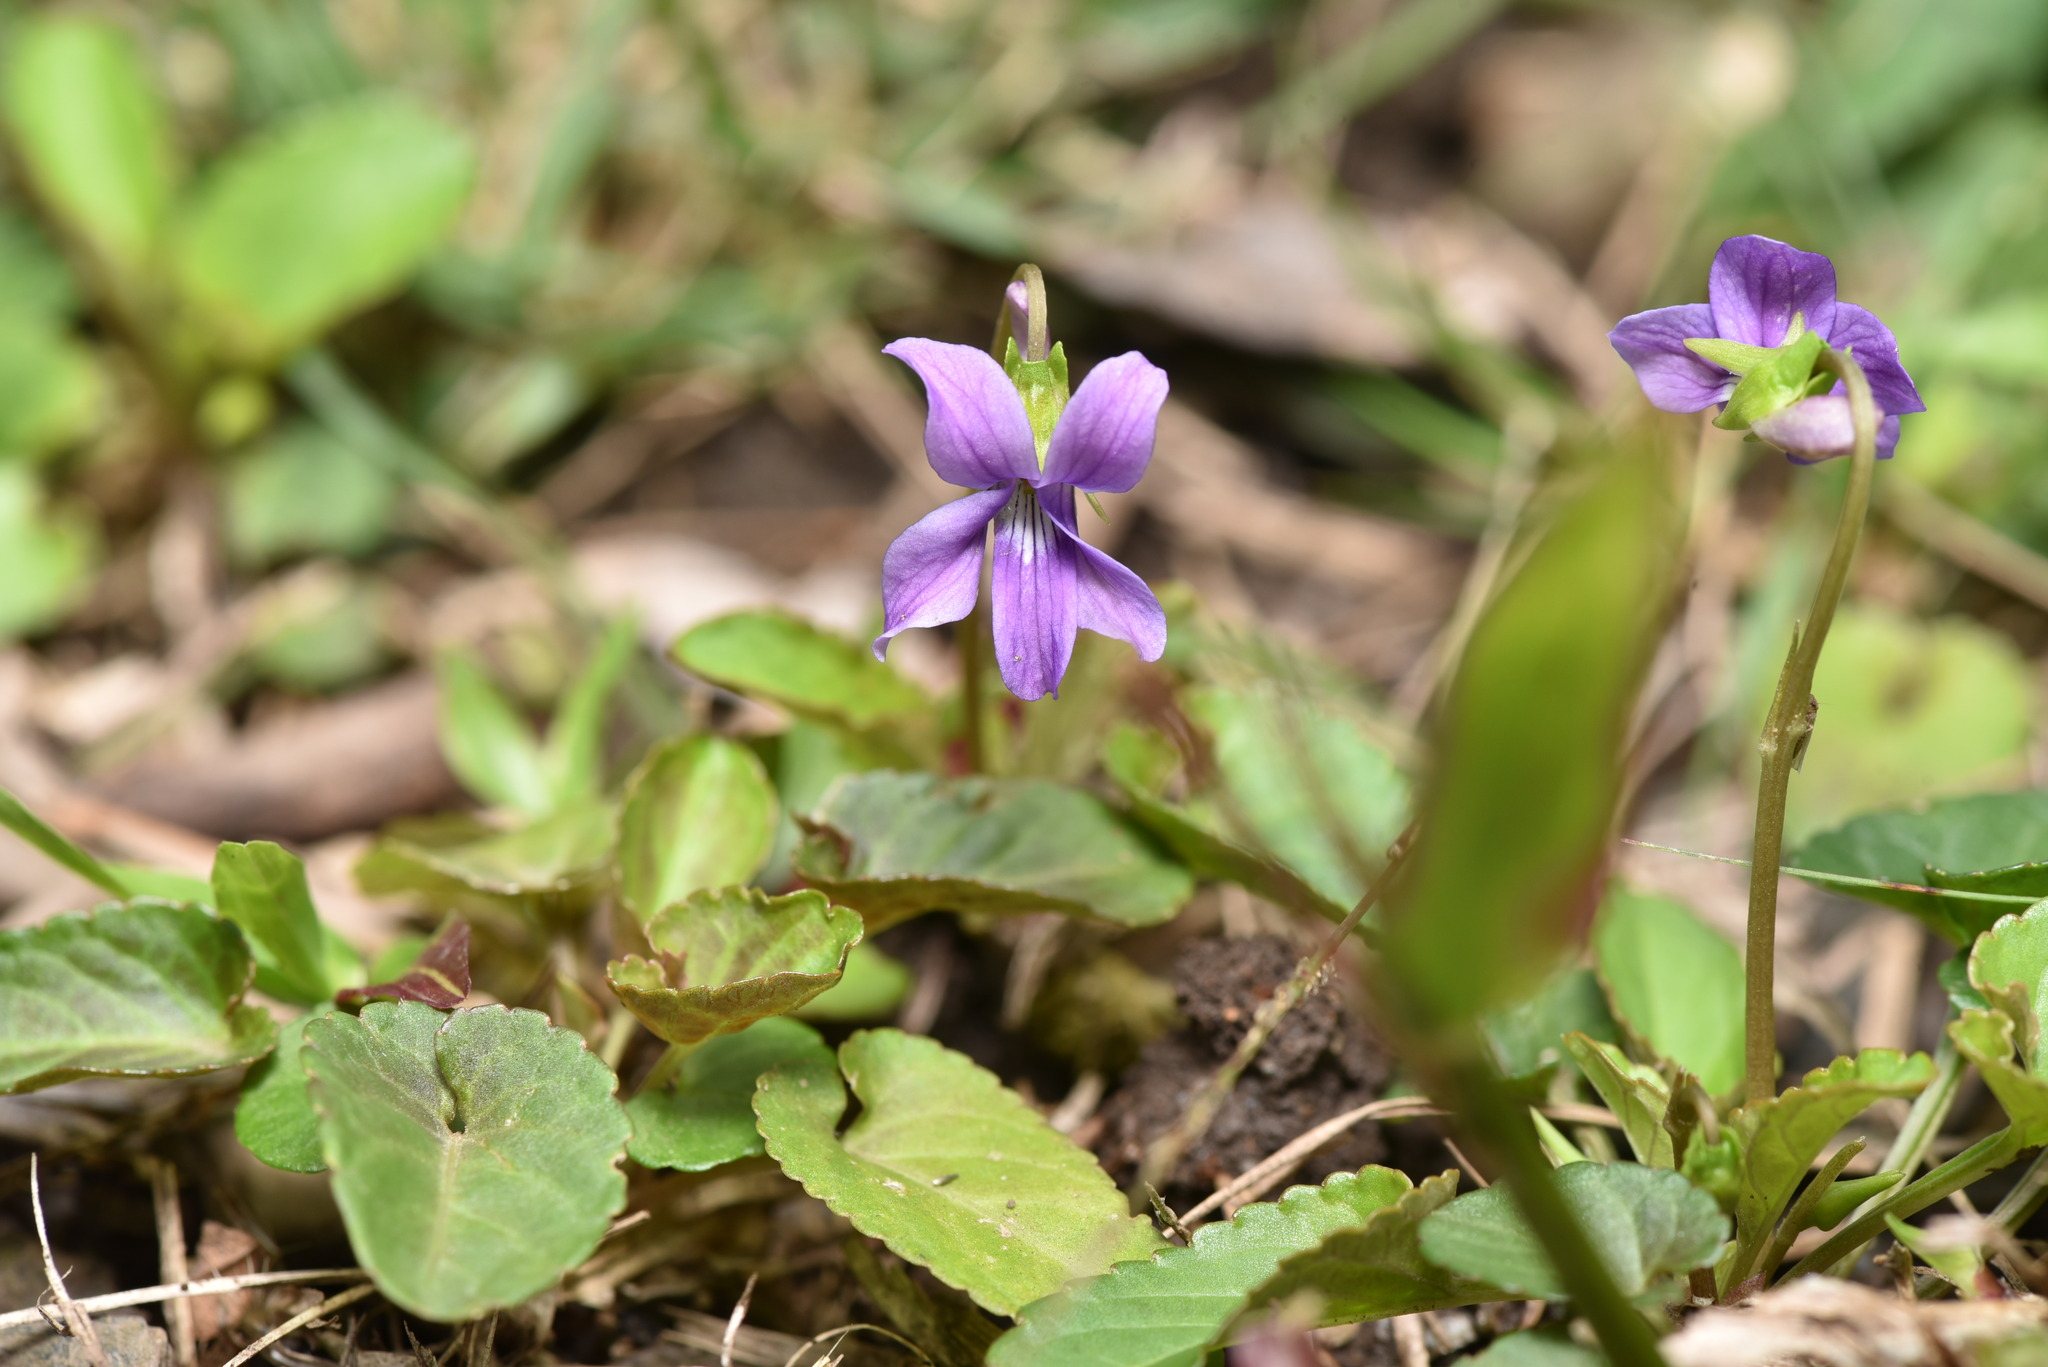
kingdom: Plantae
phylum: Tracheophyta
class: Magnoliopsida
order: Malpighiales
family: Violaceae
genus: Viola
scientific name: Viola
